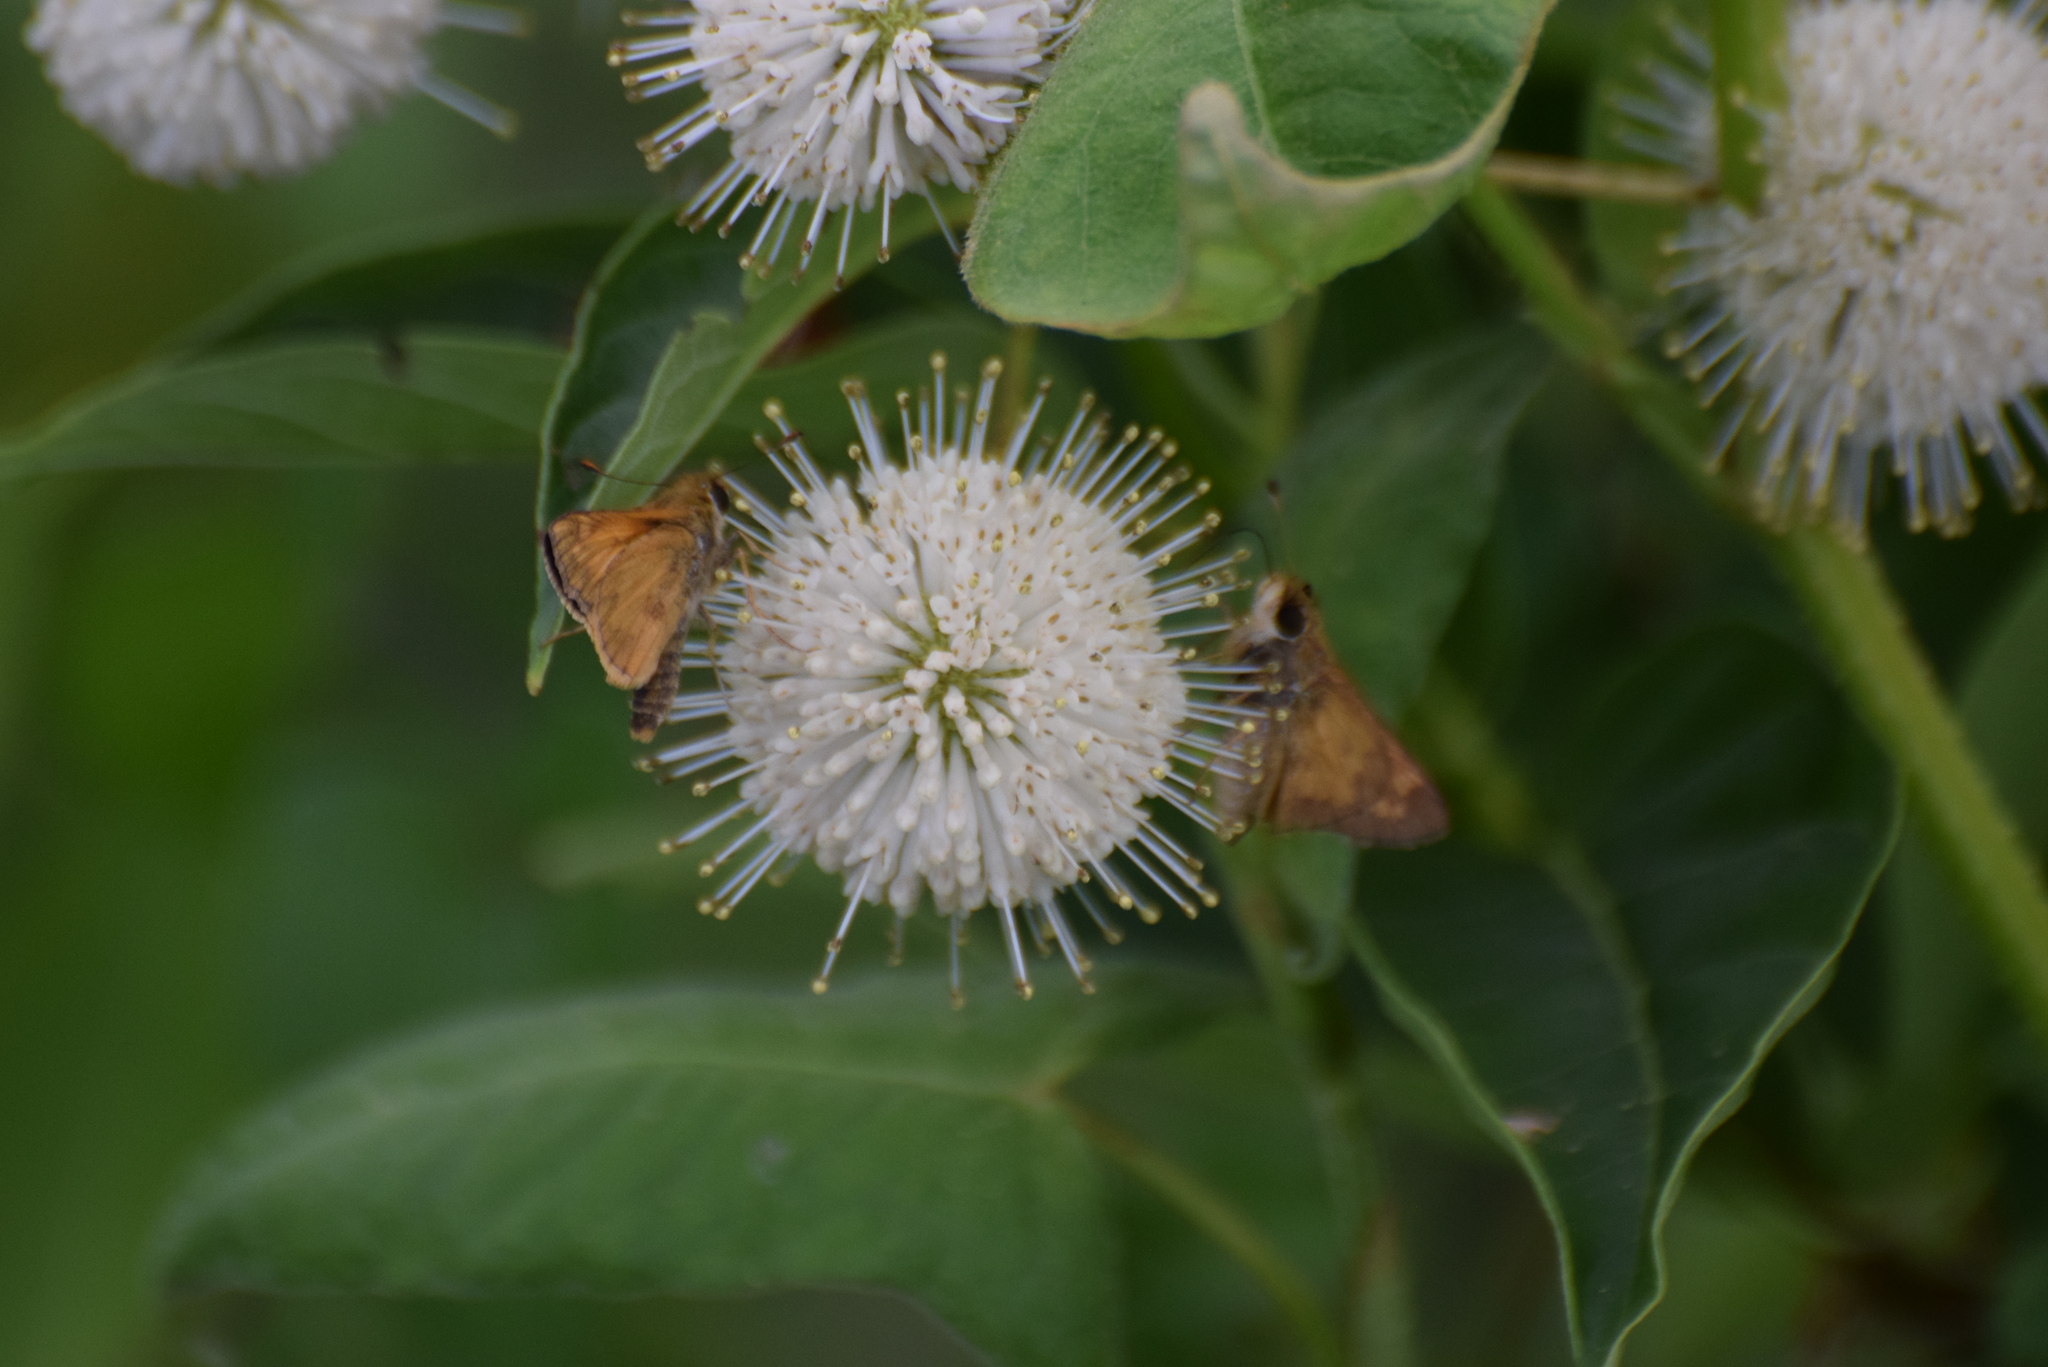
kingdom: Animalia
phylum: Arthropoda
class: Insecta
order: Lepidoptera
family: Hesperiidae
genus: Atalopedes
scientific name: Atalopedes
